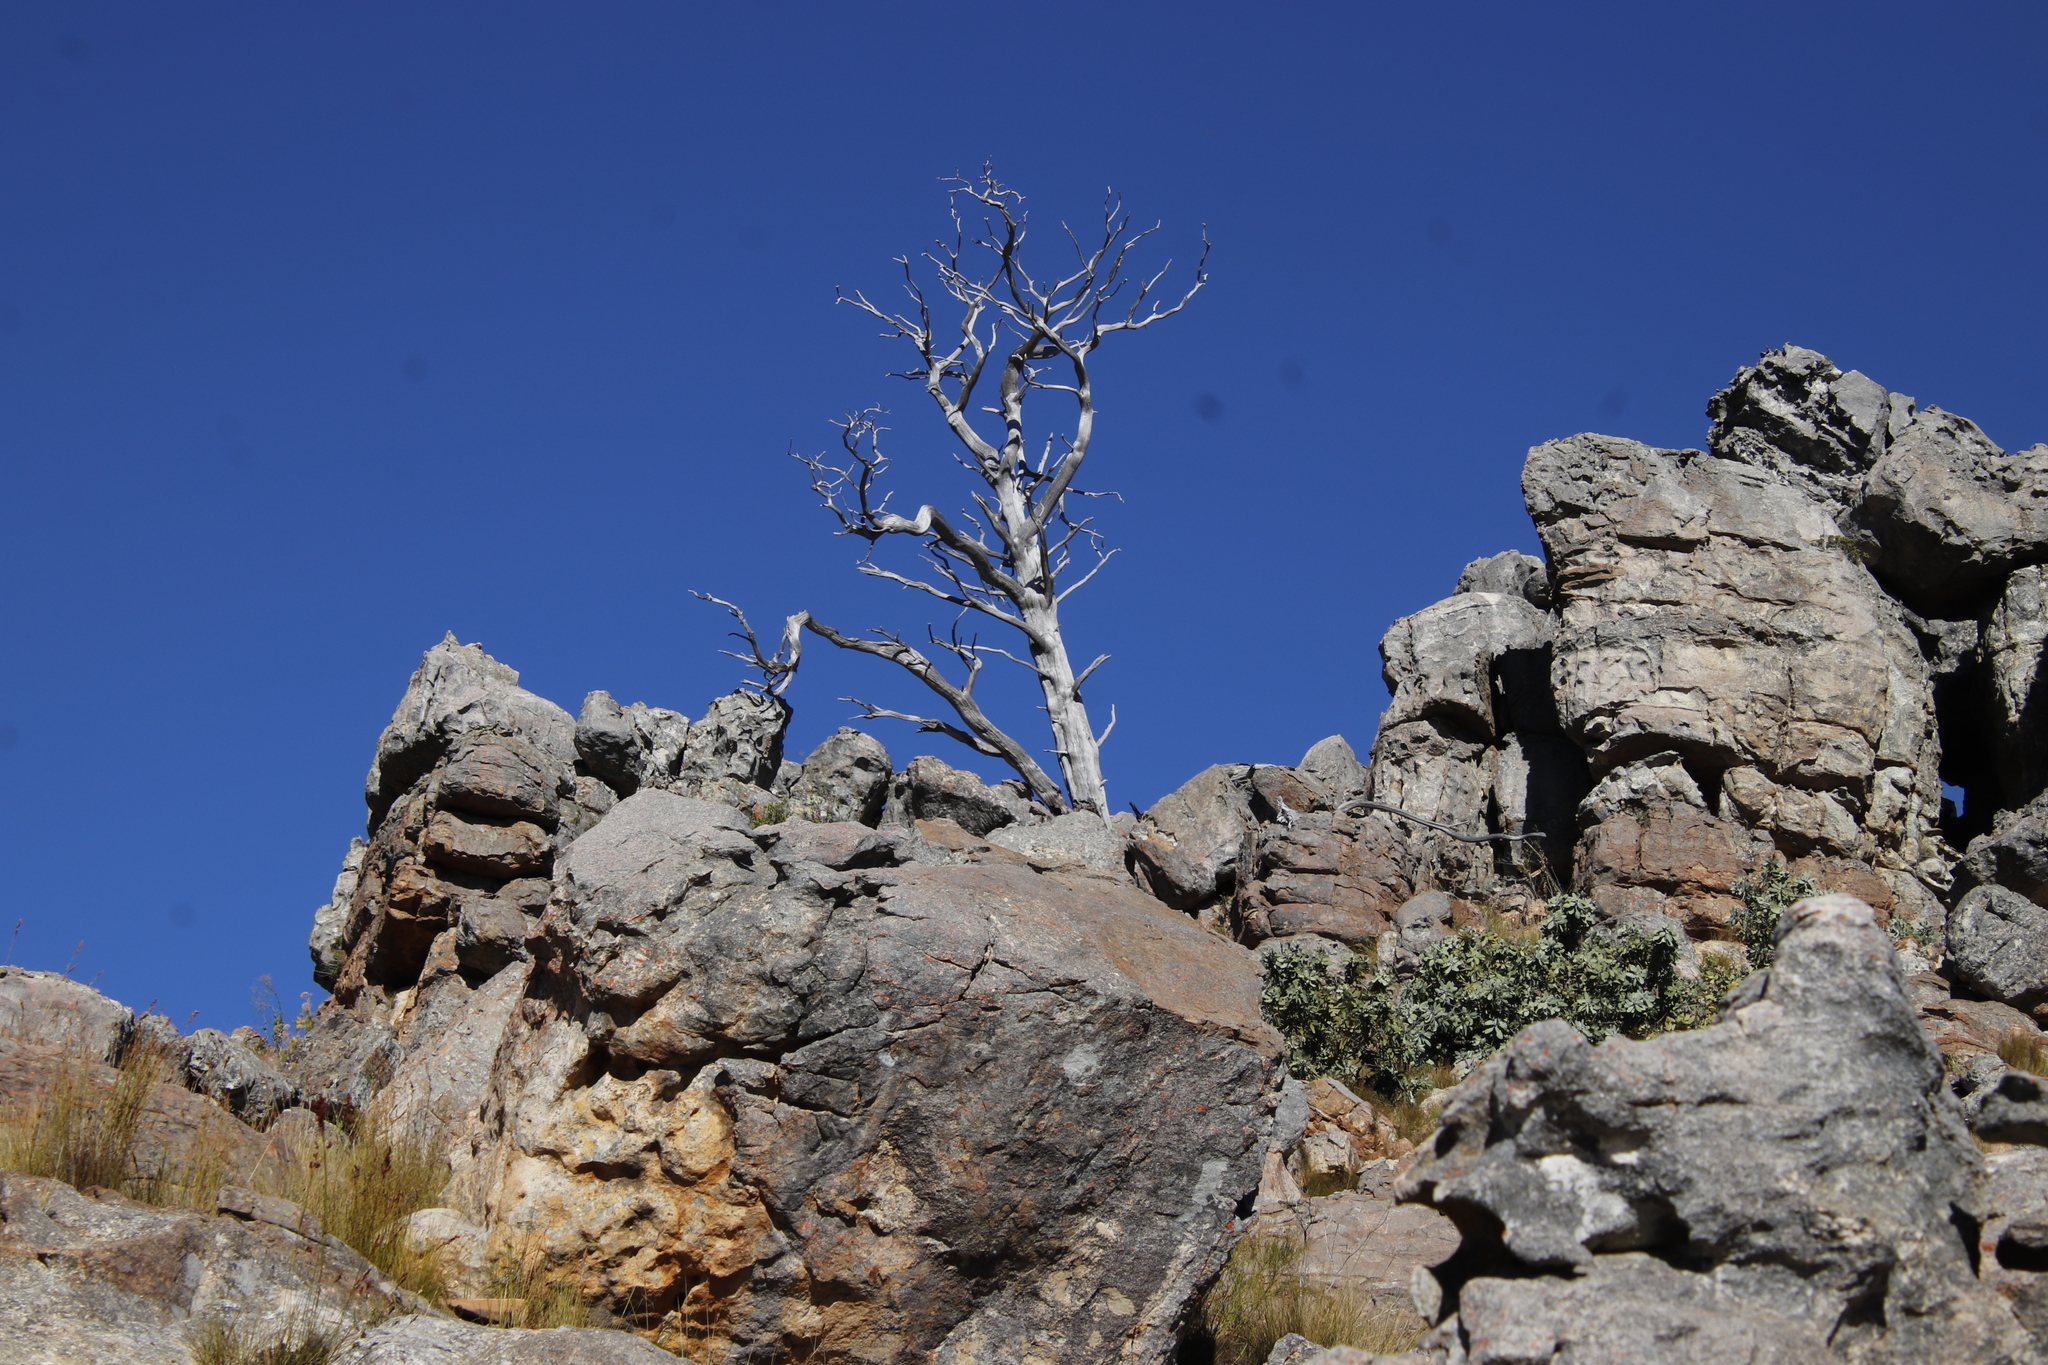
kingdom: Plantae
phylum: Tracheophyta
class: Pinopsida
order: Pinales
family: Cupressaceae
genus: Widdringtonia
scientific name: Widdringtonia nodiflora
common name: Cape cypress
